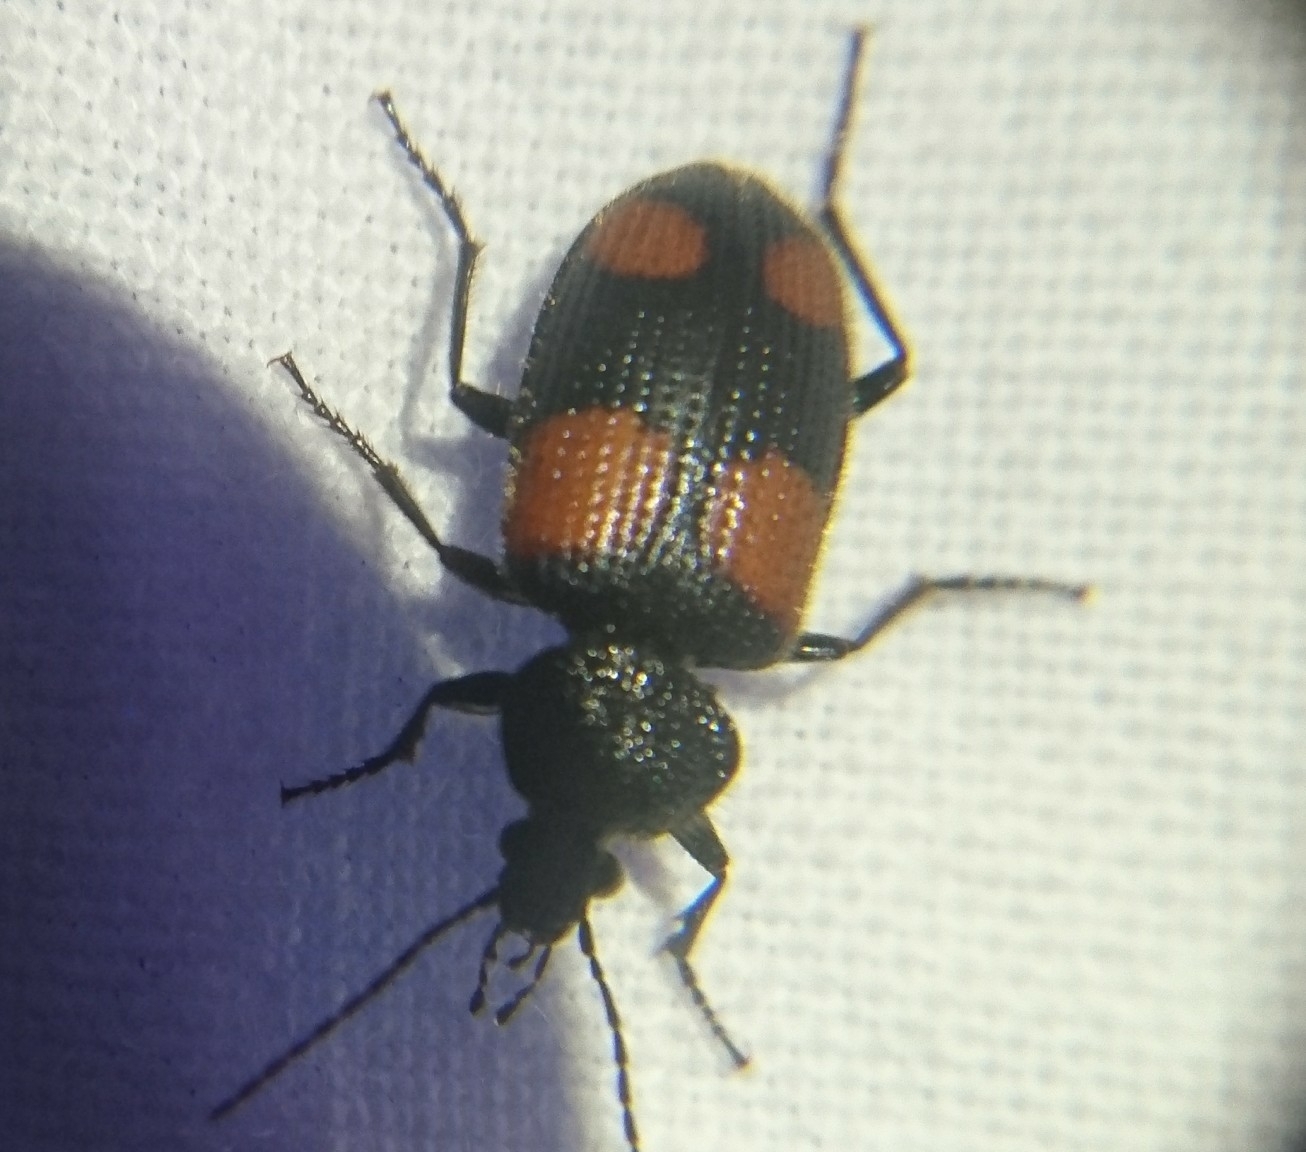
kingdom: Animalia
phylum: Arthropoda
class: Insecta
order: Coleoptera
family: Carabidae
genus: Panagaeus
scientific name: Panagaeus cruciger
